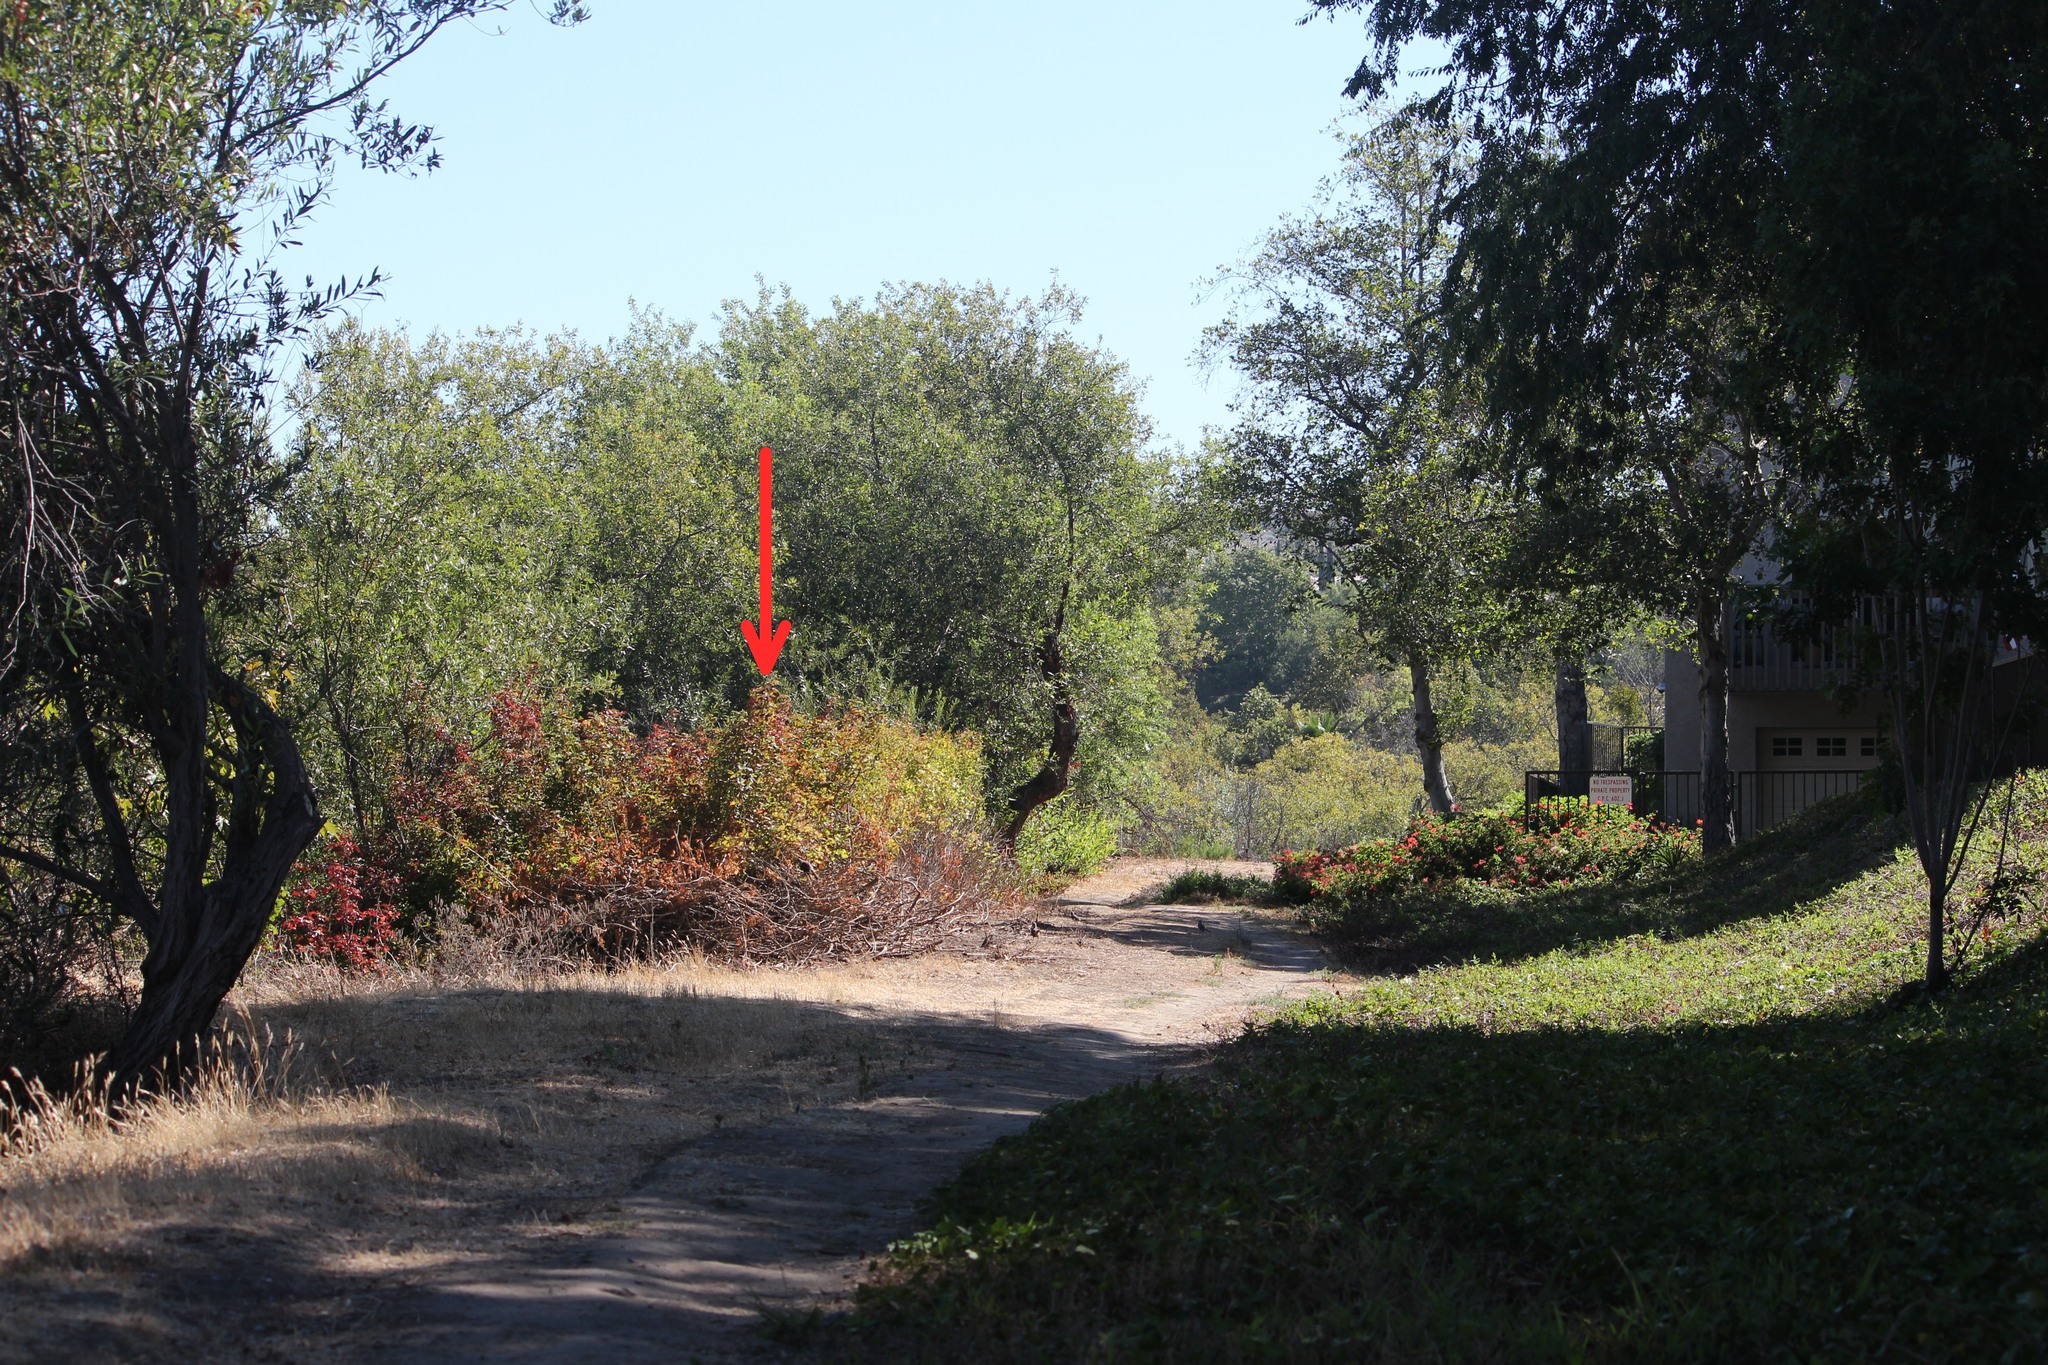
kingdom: Plantae
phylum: Tracheophyta
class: Magnoliopsida
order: Sapindales
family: Anacardiaceae
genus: Toxicodendron
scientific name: Toxicodendron diversilobum
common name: Pacific poison-oak
